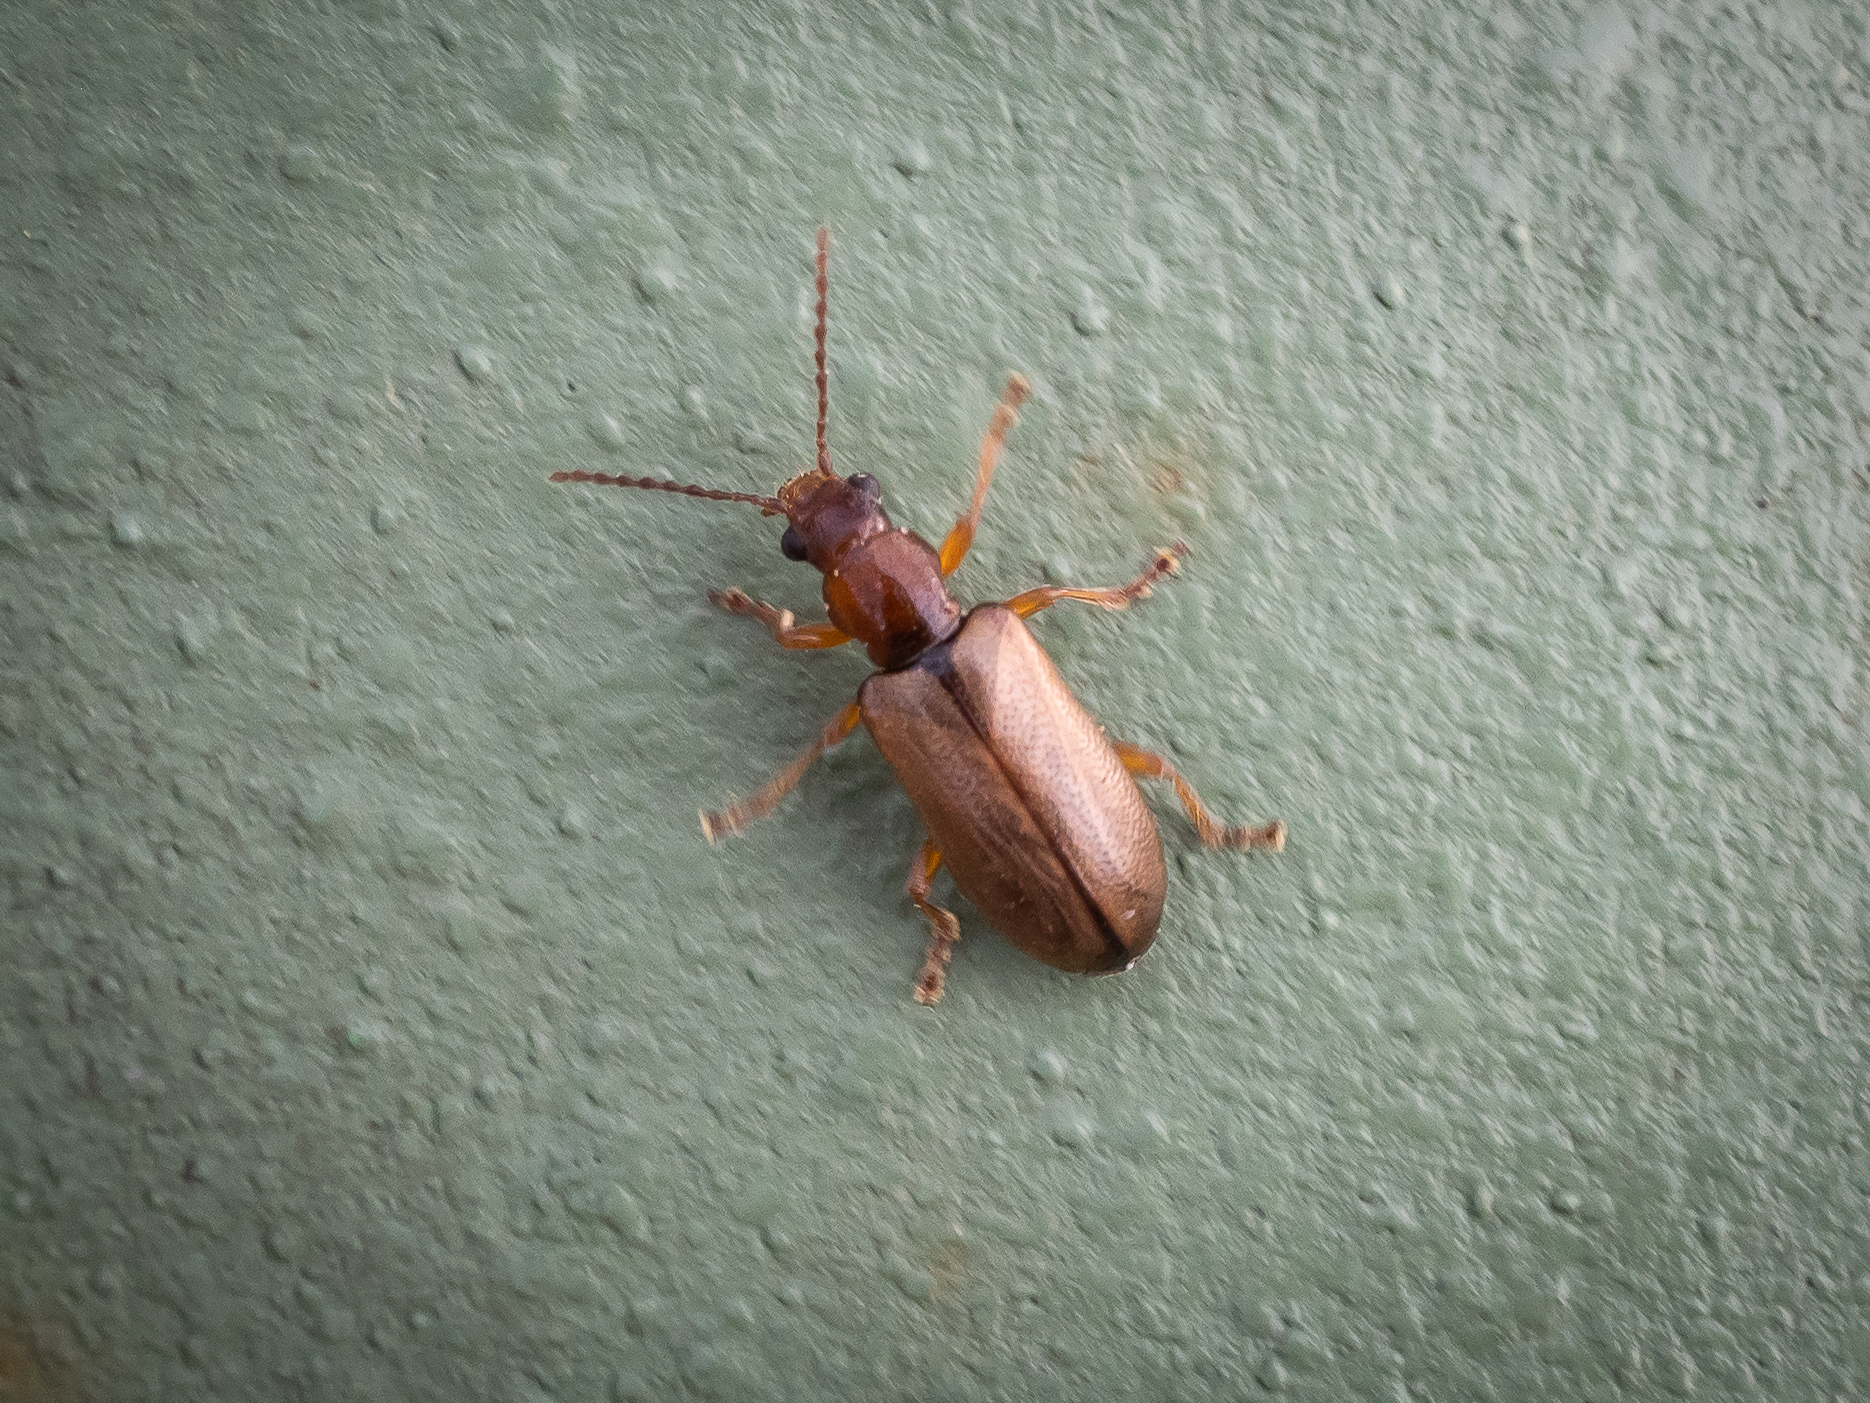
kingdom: Animalia
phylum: Arthropoda
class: Insecta
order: Coleoptera
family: Orsodacnidae
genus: Orsodacne
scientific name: Orsodacne cerasi
